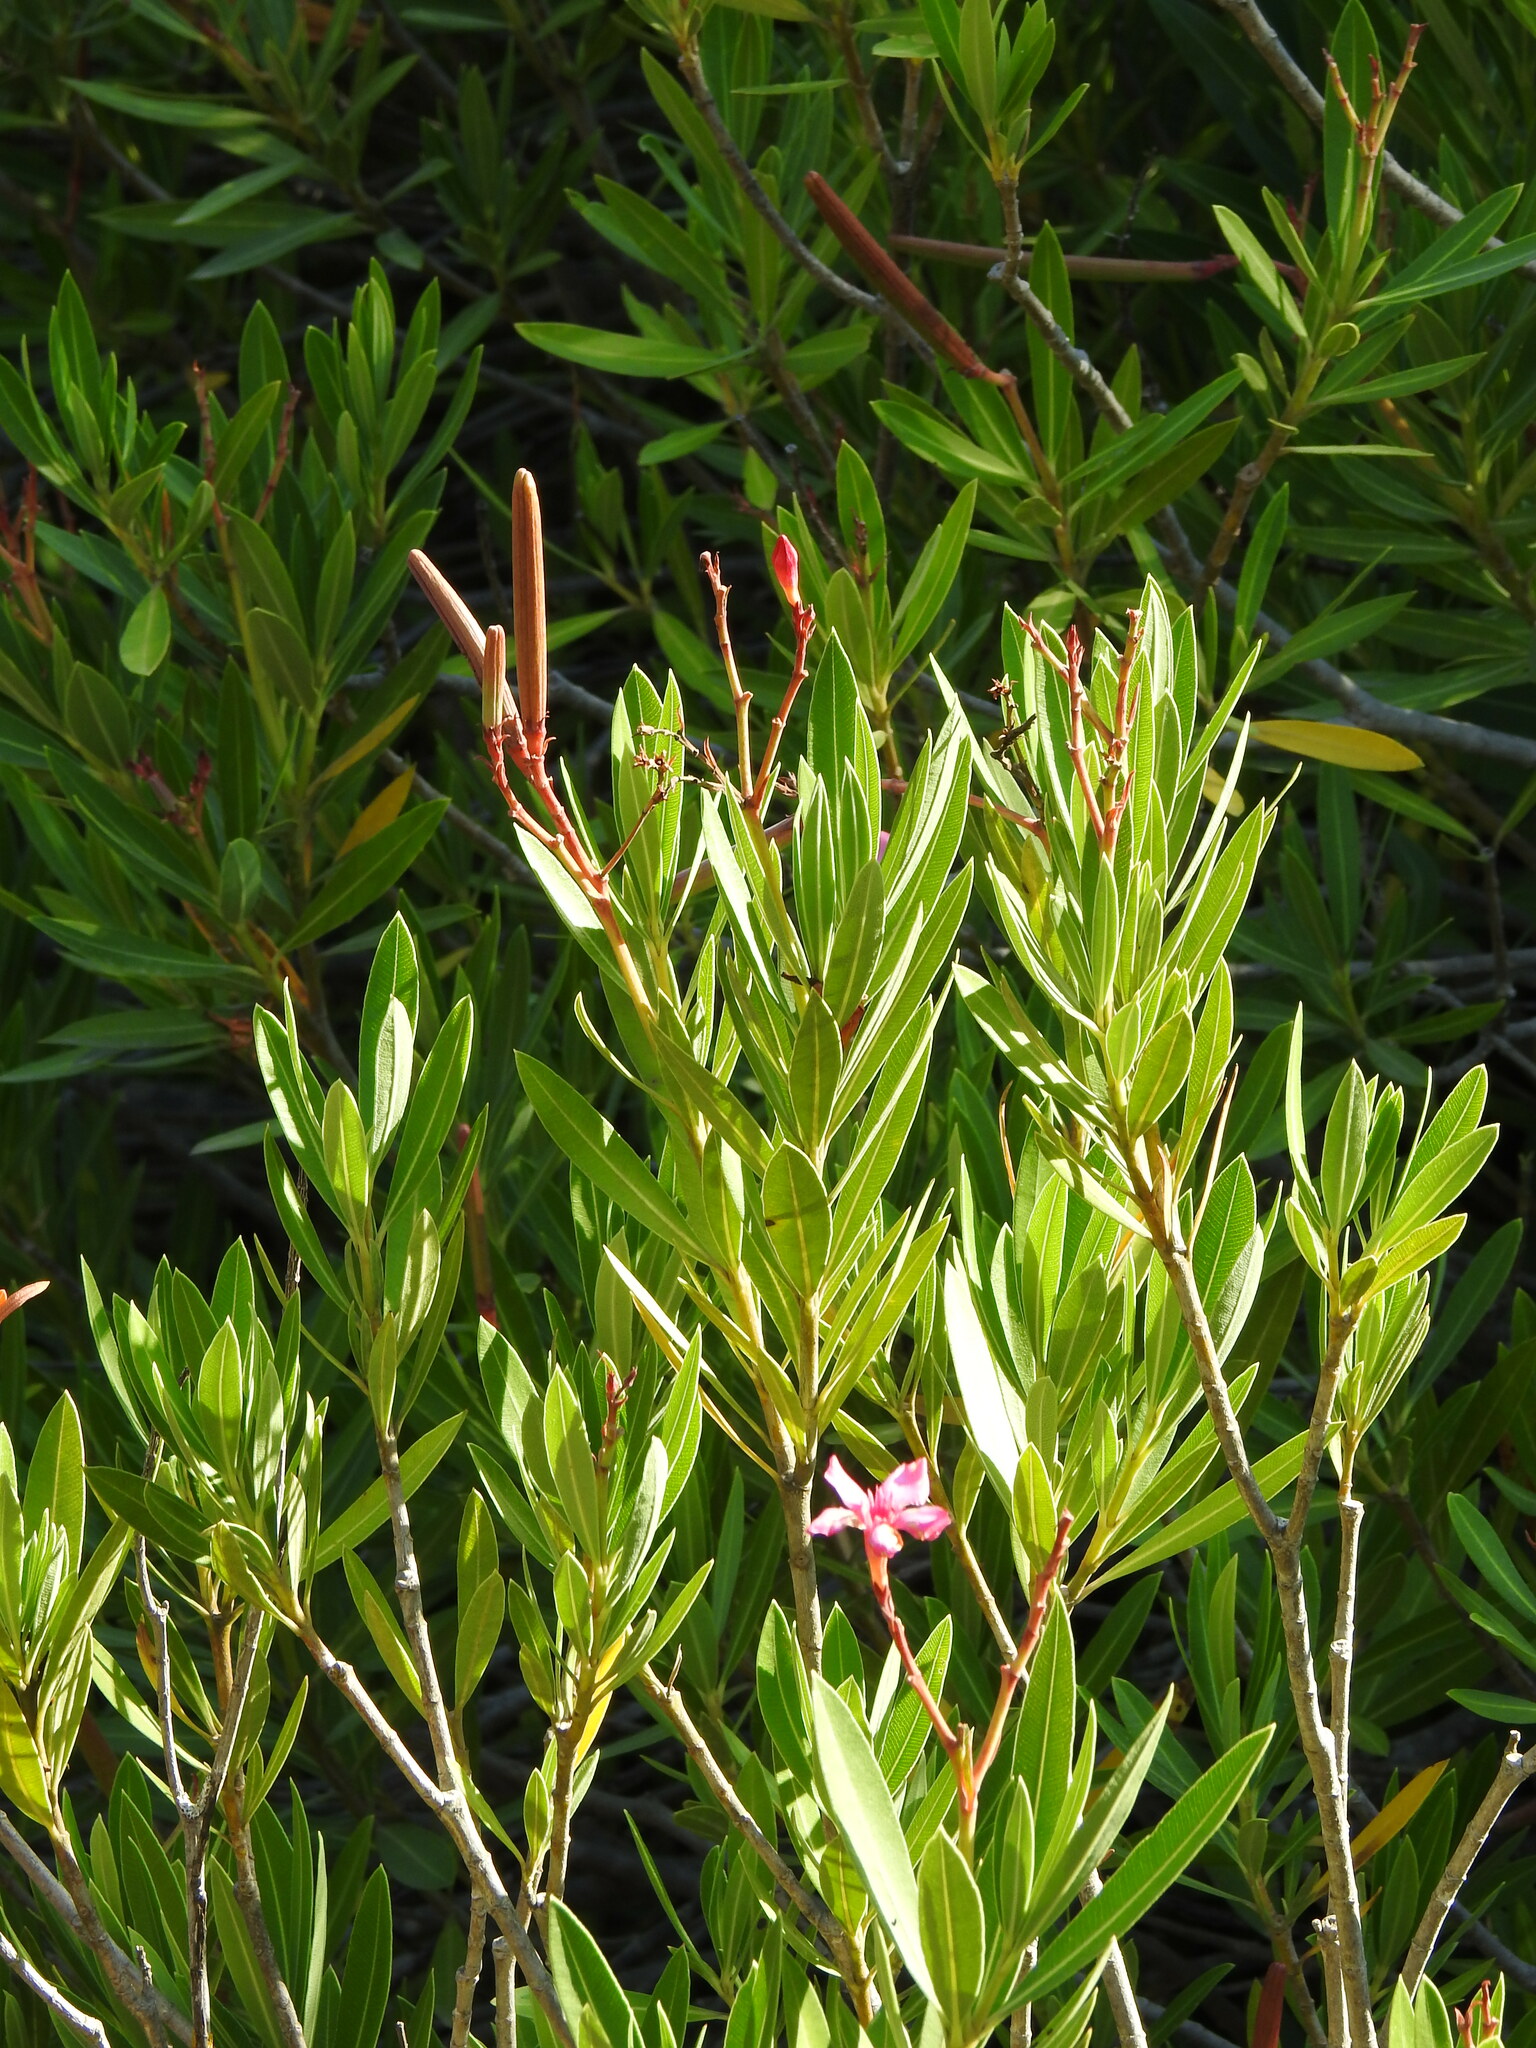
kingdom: Plantae
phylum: Tracheophyta
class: Magnoliopsida
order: Gentianales
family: Apocynaceae
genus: Nerium
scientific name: Nerium oleander
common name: Oleander
